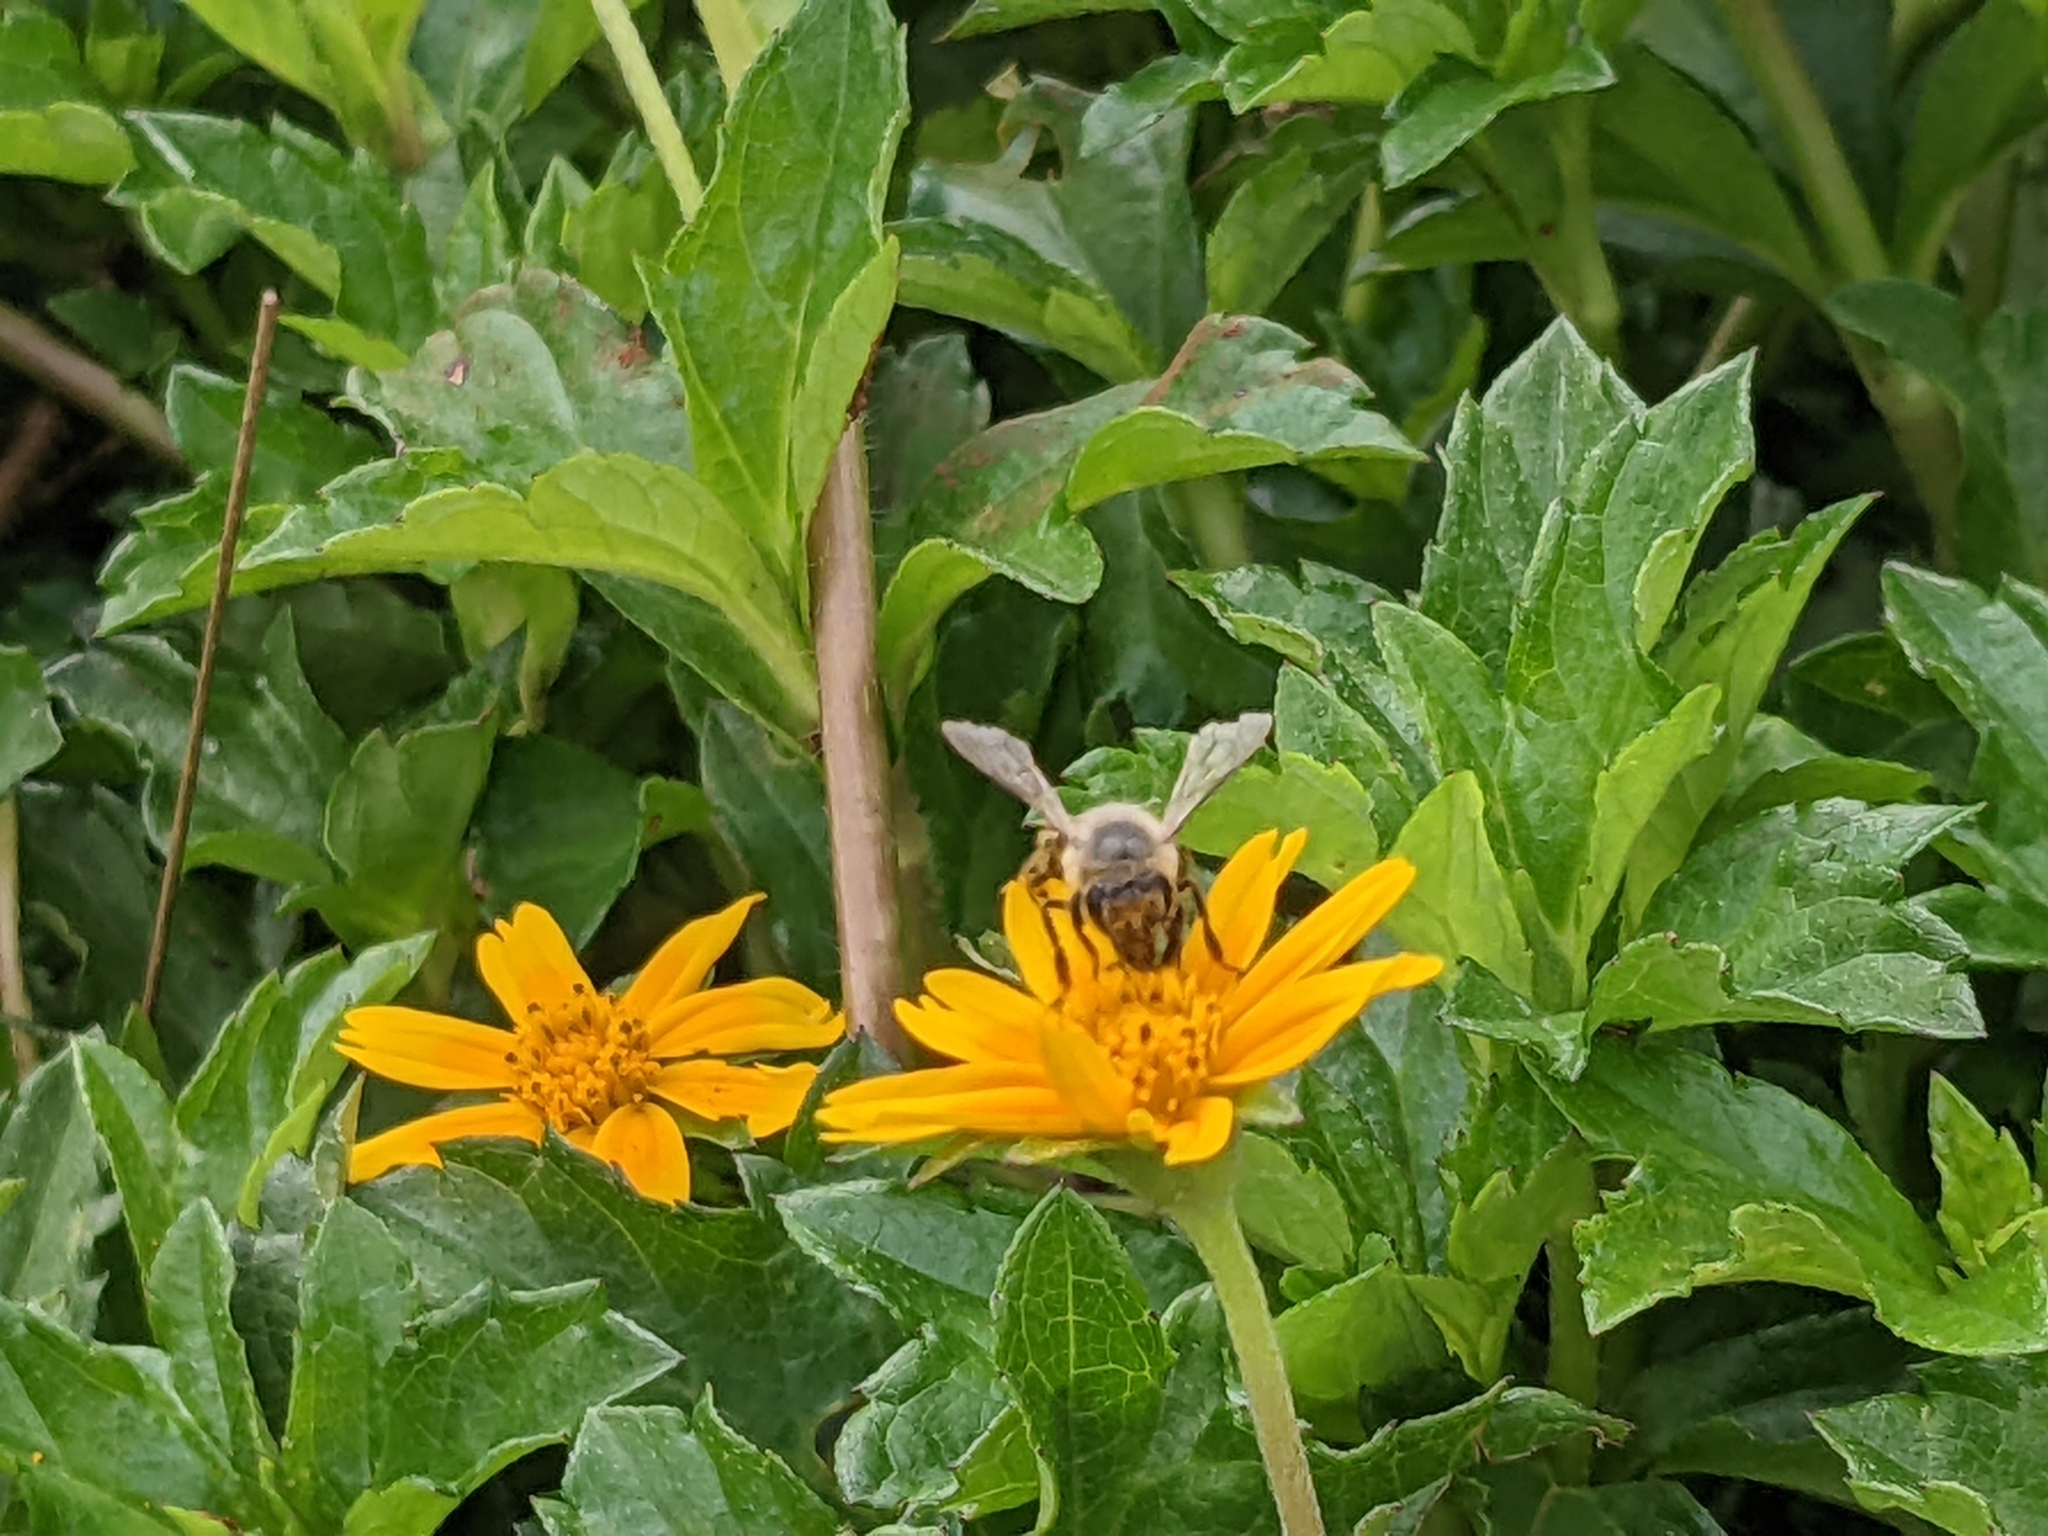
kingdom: Animalia
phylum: Arthropoda
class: Insecta
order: Hymenoptera
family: Apidae
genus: Apis
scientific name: Apis mellifera
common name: Honey bee
